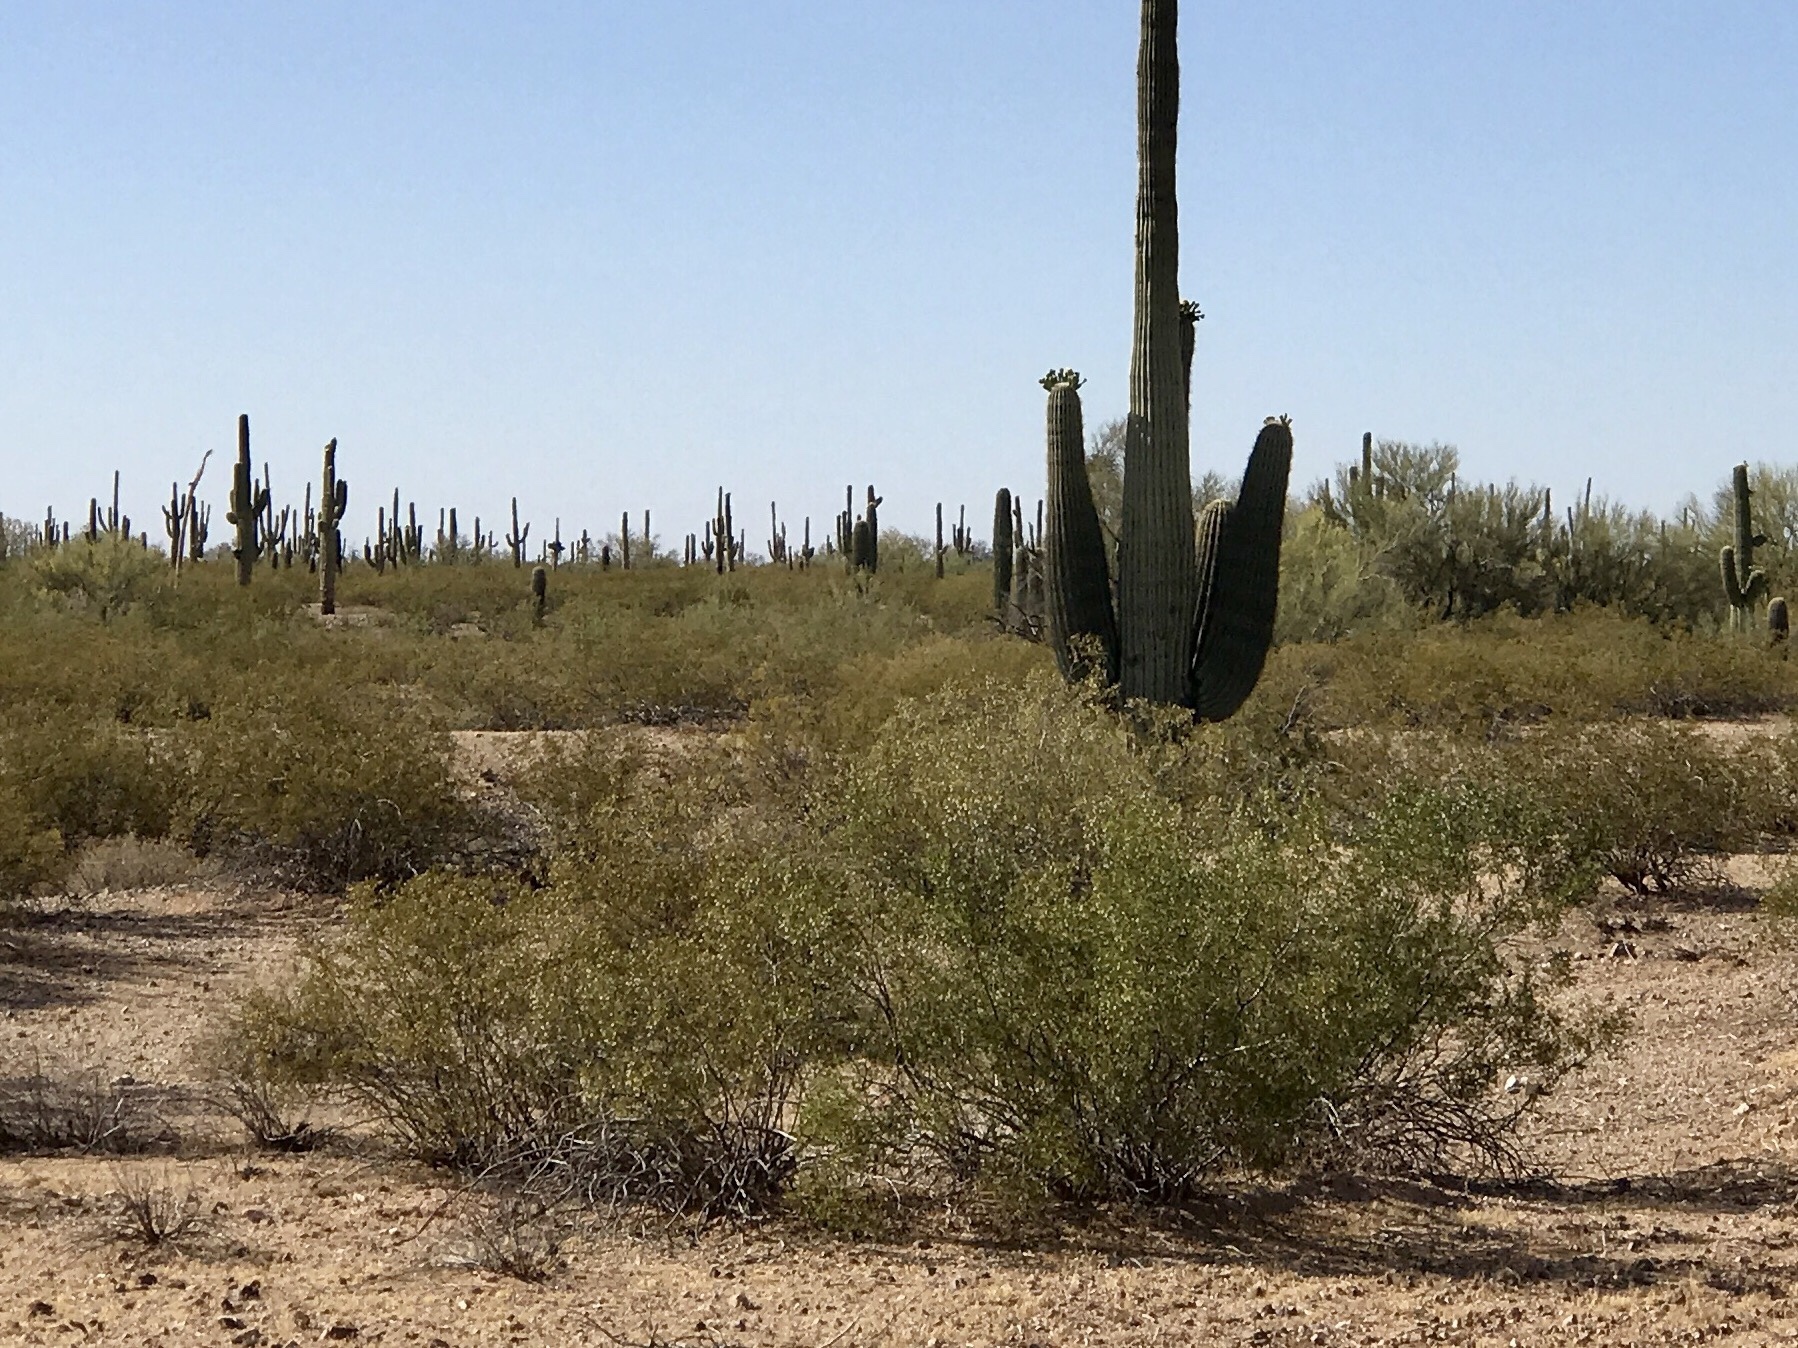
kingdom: Plantae
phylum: Tracheophyta
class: Magnoliopsida
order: Zygophyllales
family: Zygophyllaceae
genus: Larrea
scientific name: Larrea tridentata
